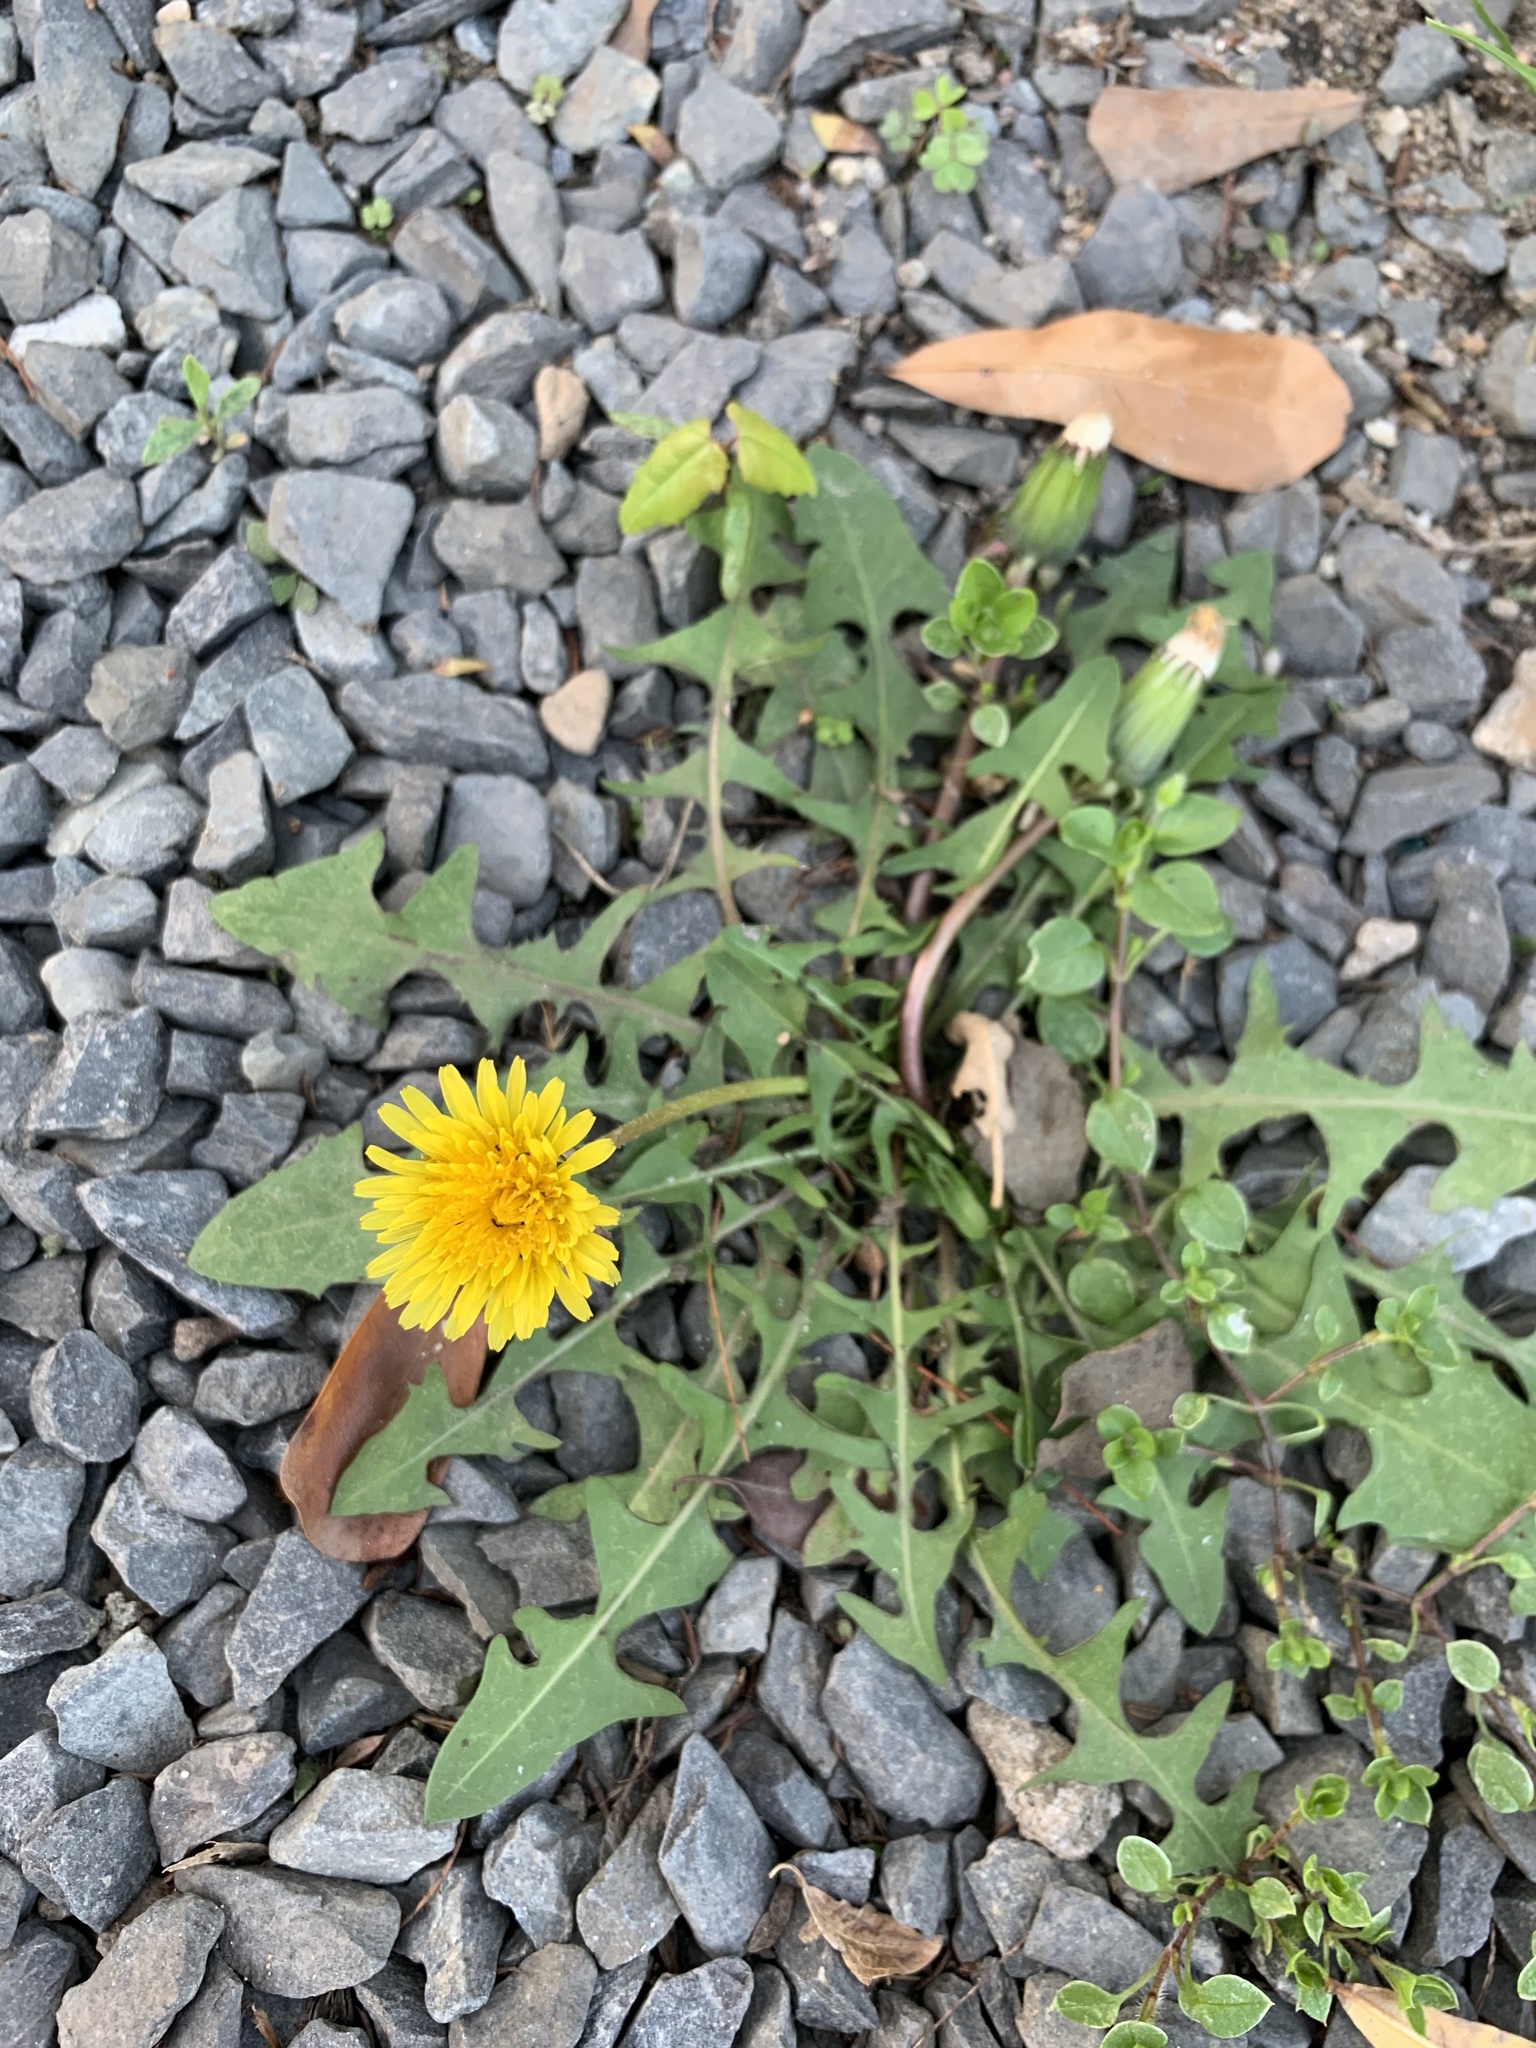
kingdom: Plantae
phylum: Tracheophyta
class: Magnoliopsida
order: Asterales
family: Asteraceae
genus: Taraxacum
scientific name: Taraxacum officinale
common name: Common dandelion
